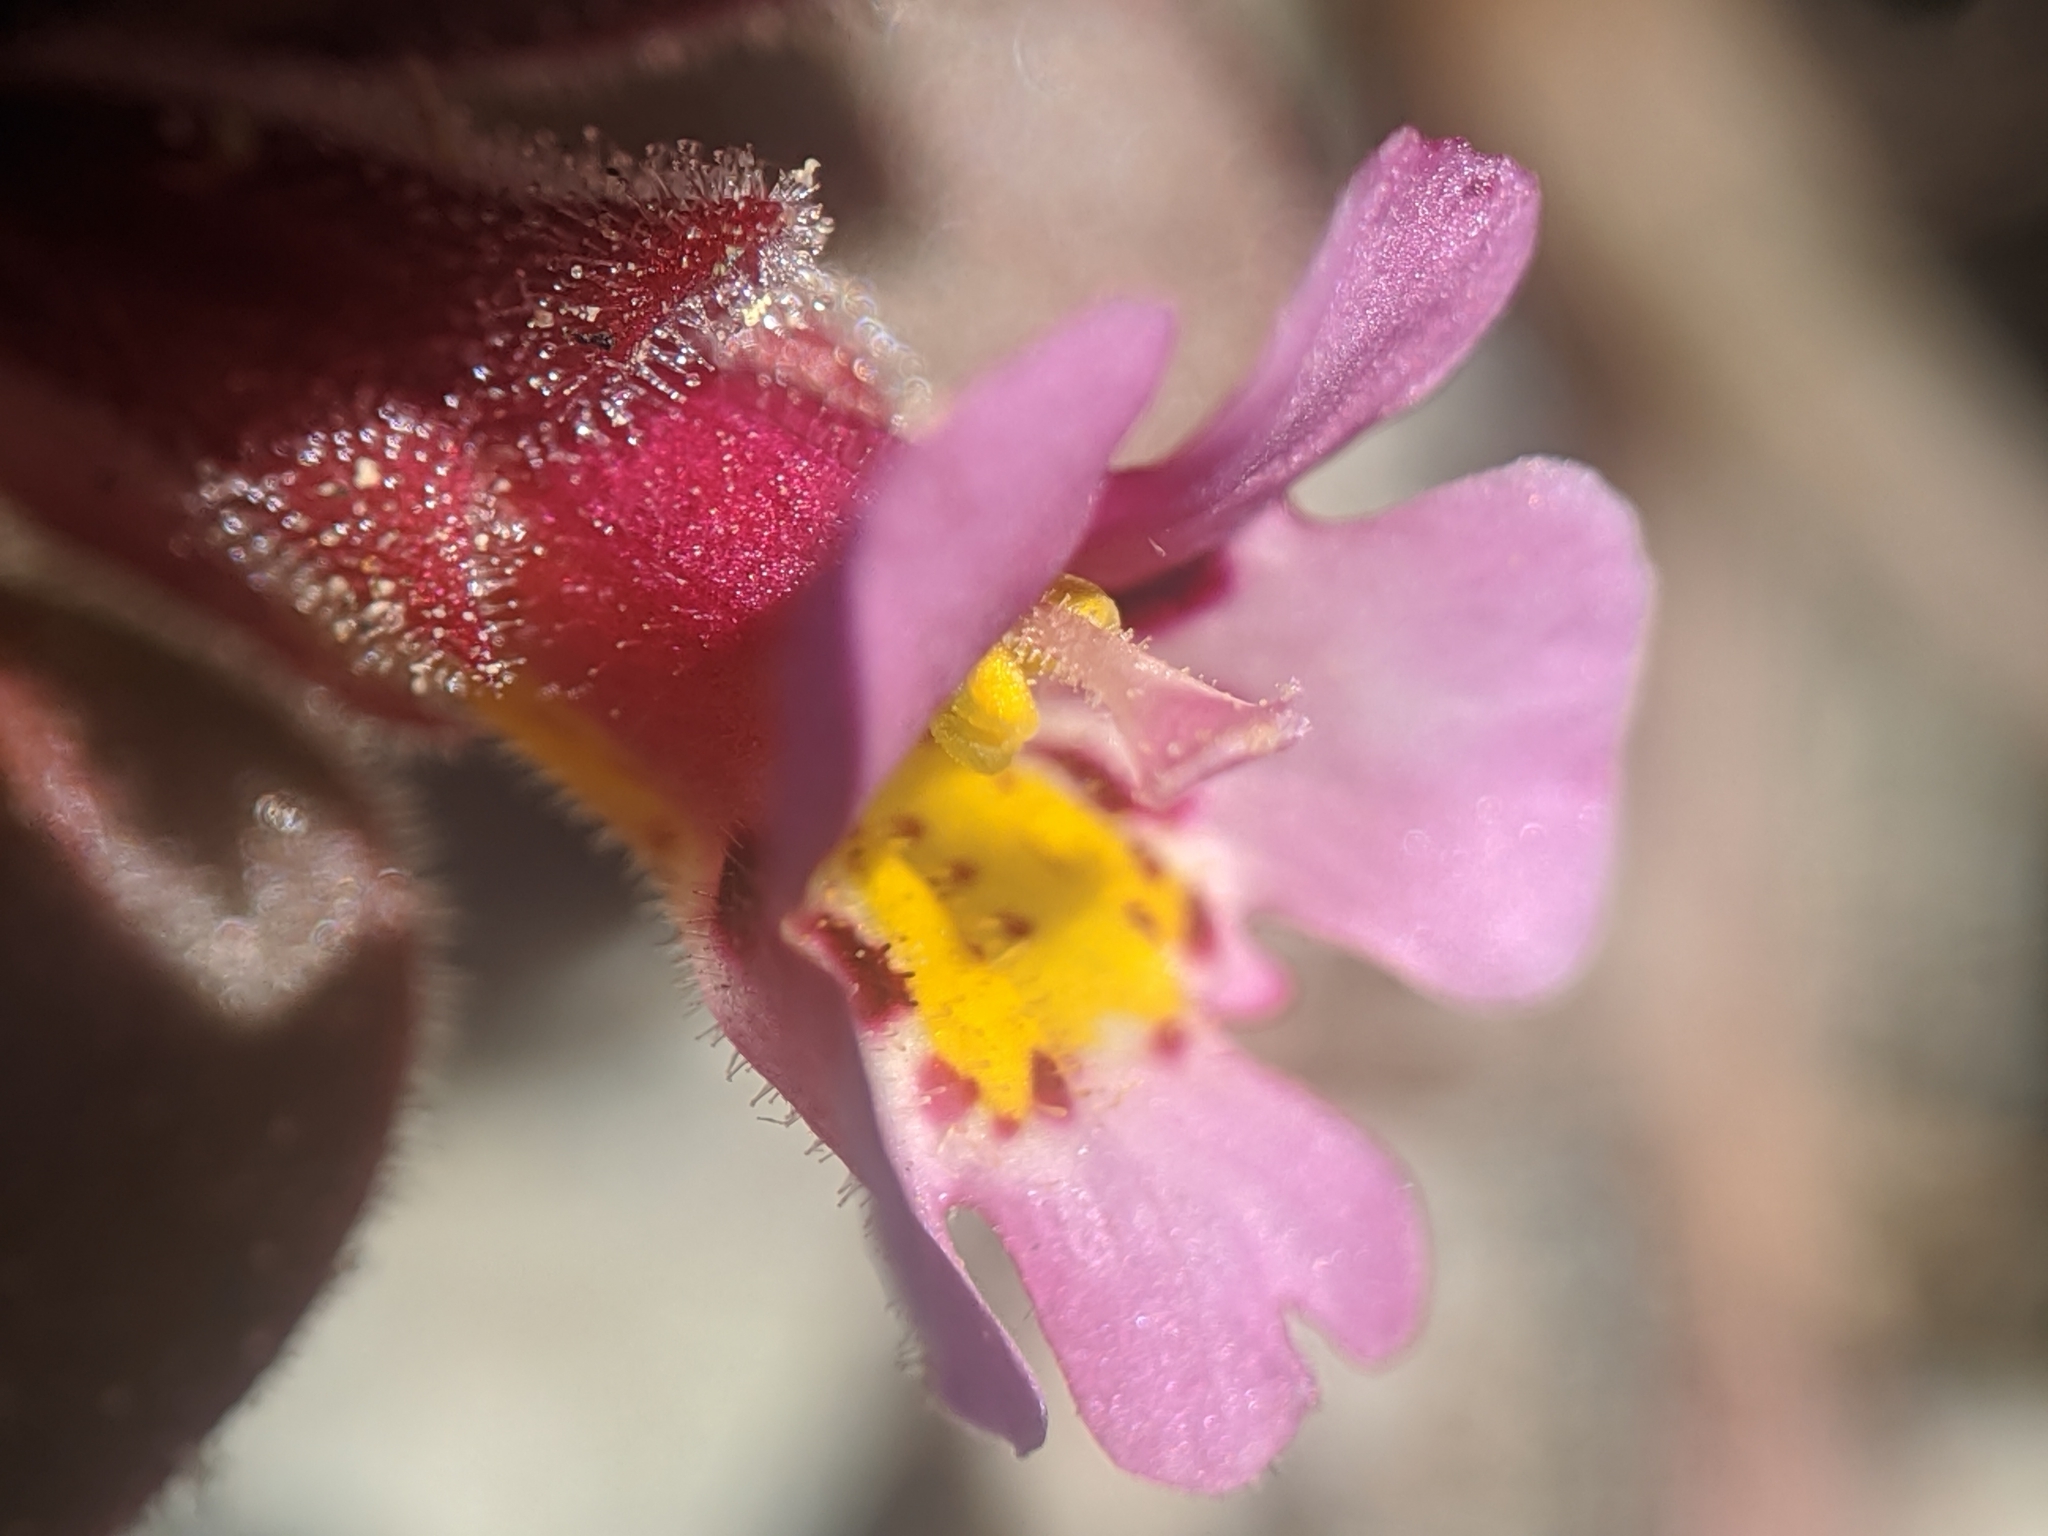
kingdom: Plantae
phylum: Tracheophyta
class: Magnoliopsida
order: Lamiales
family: Phrymaceae
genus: Diplacus
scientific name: Diplacus johnstonii
